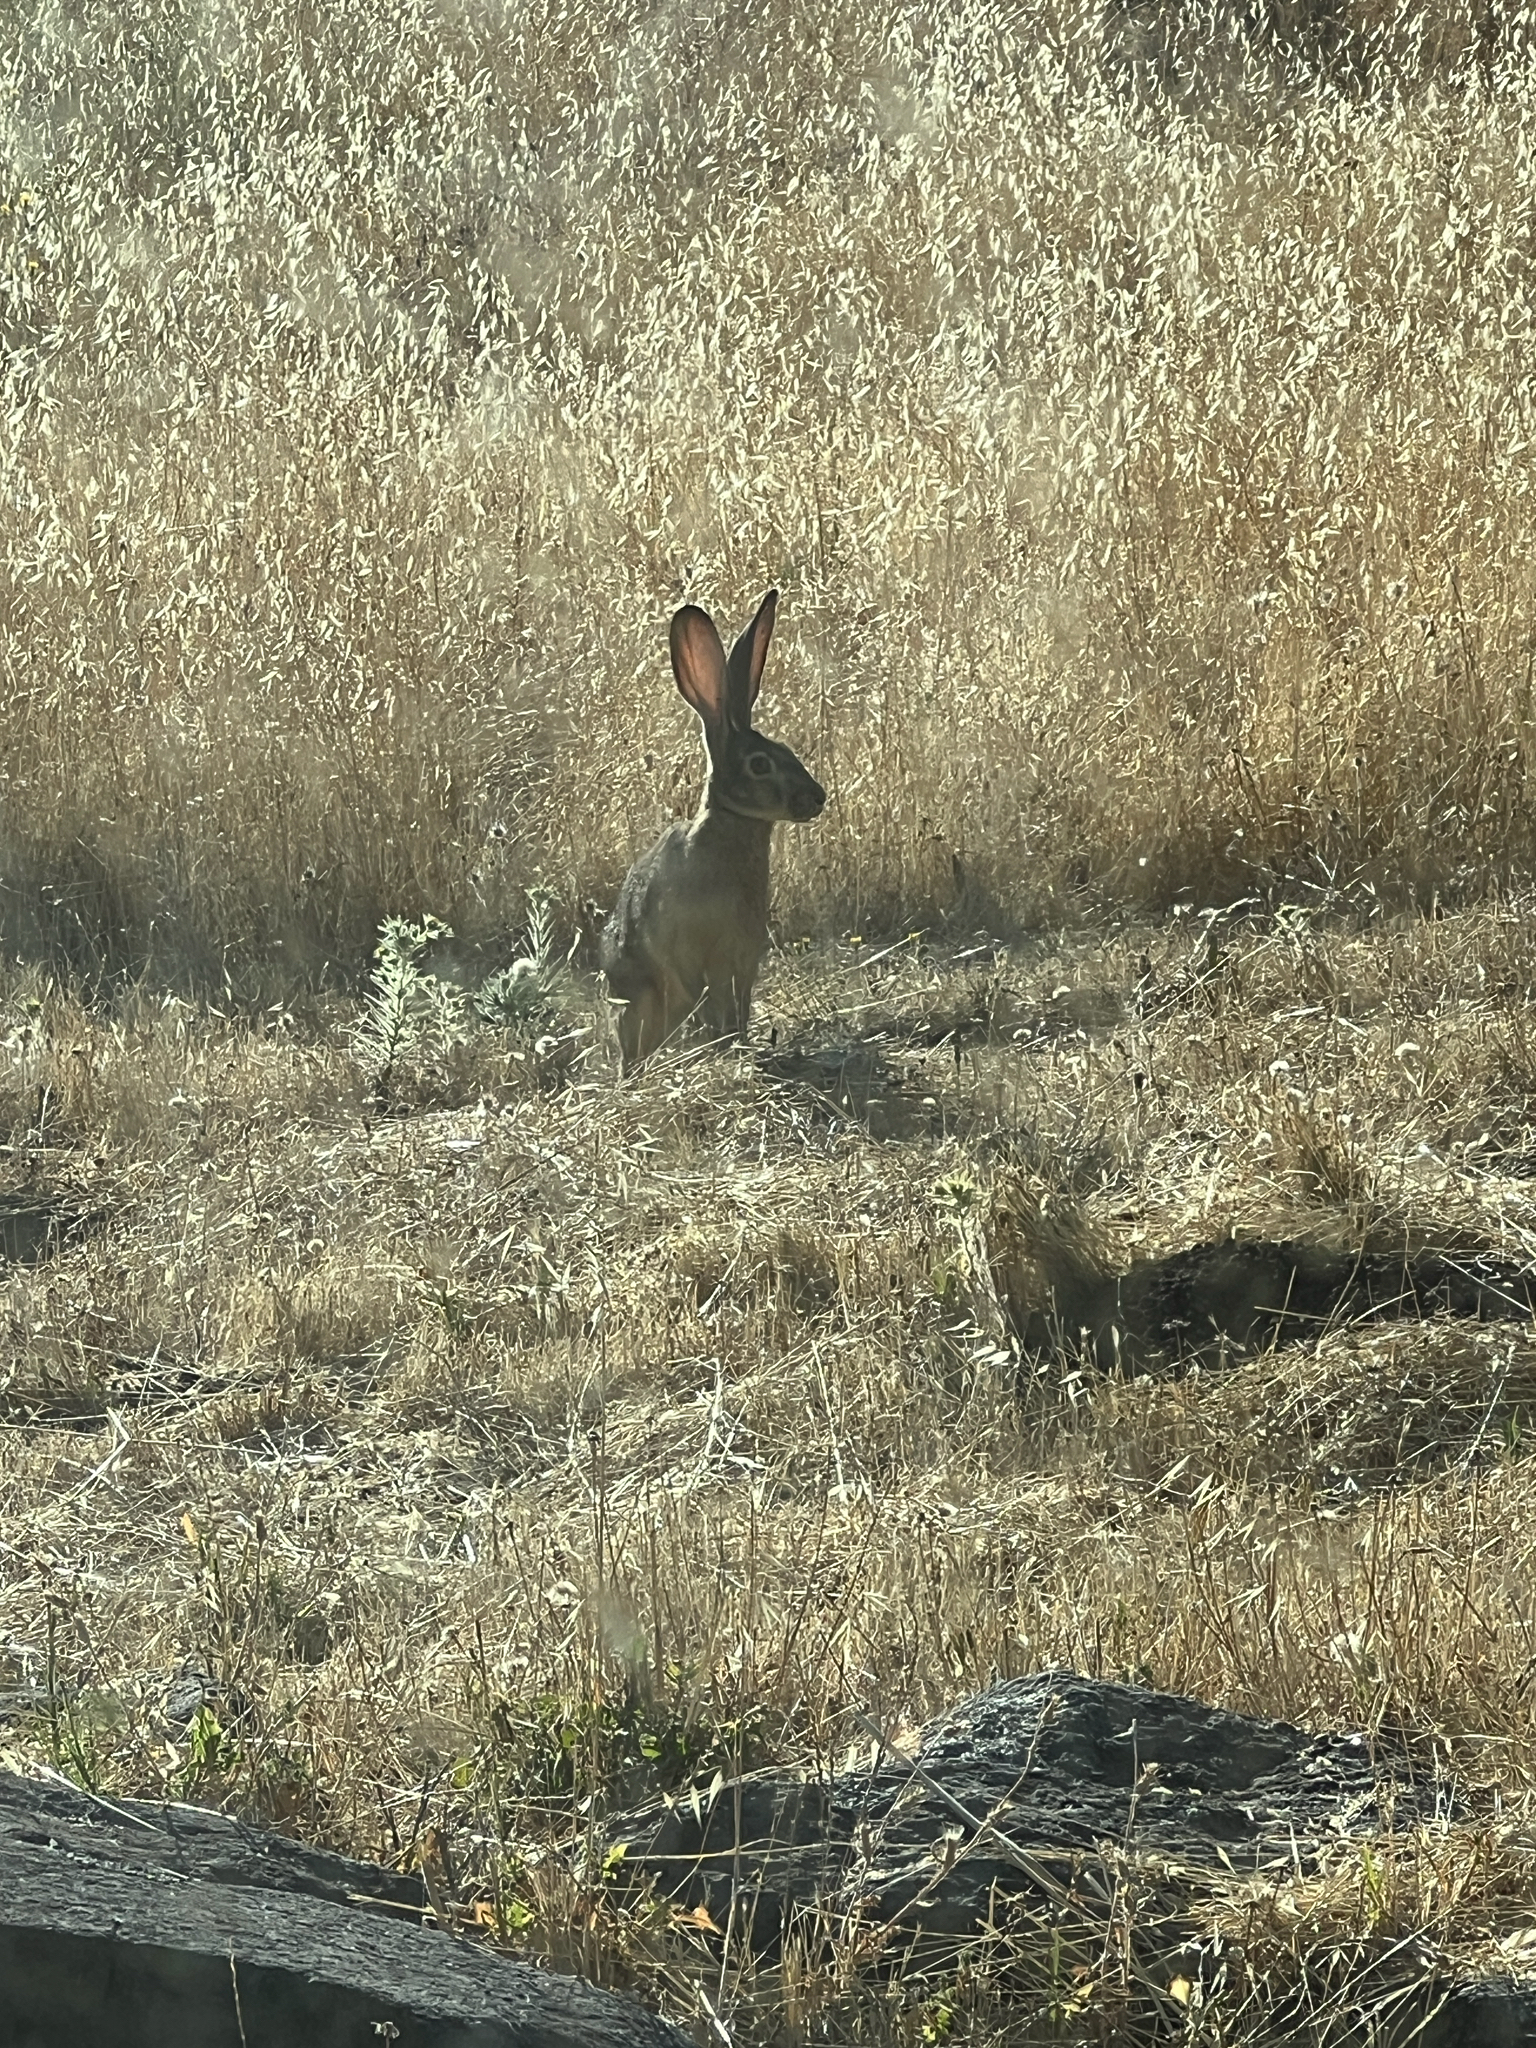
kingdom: Animalia
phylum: Chordata
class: Mammalia
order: Lagomorpha
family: Leporidae
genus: Lepus
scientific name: Lepus californicus
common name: Black-tailed jackrabbit
